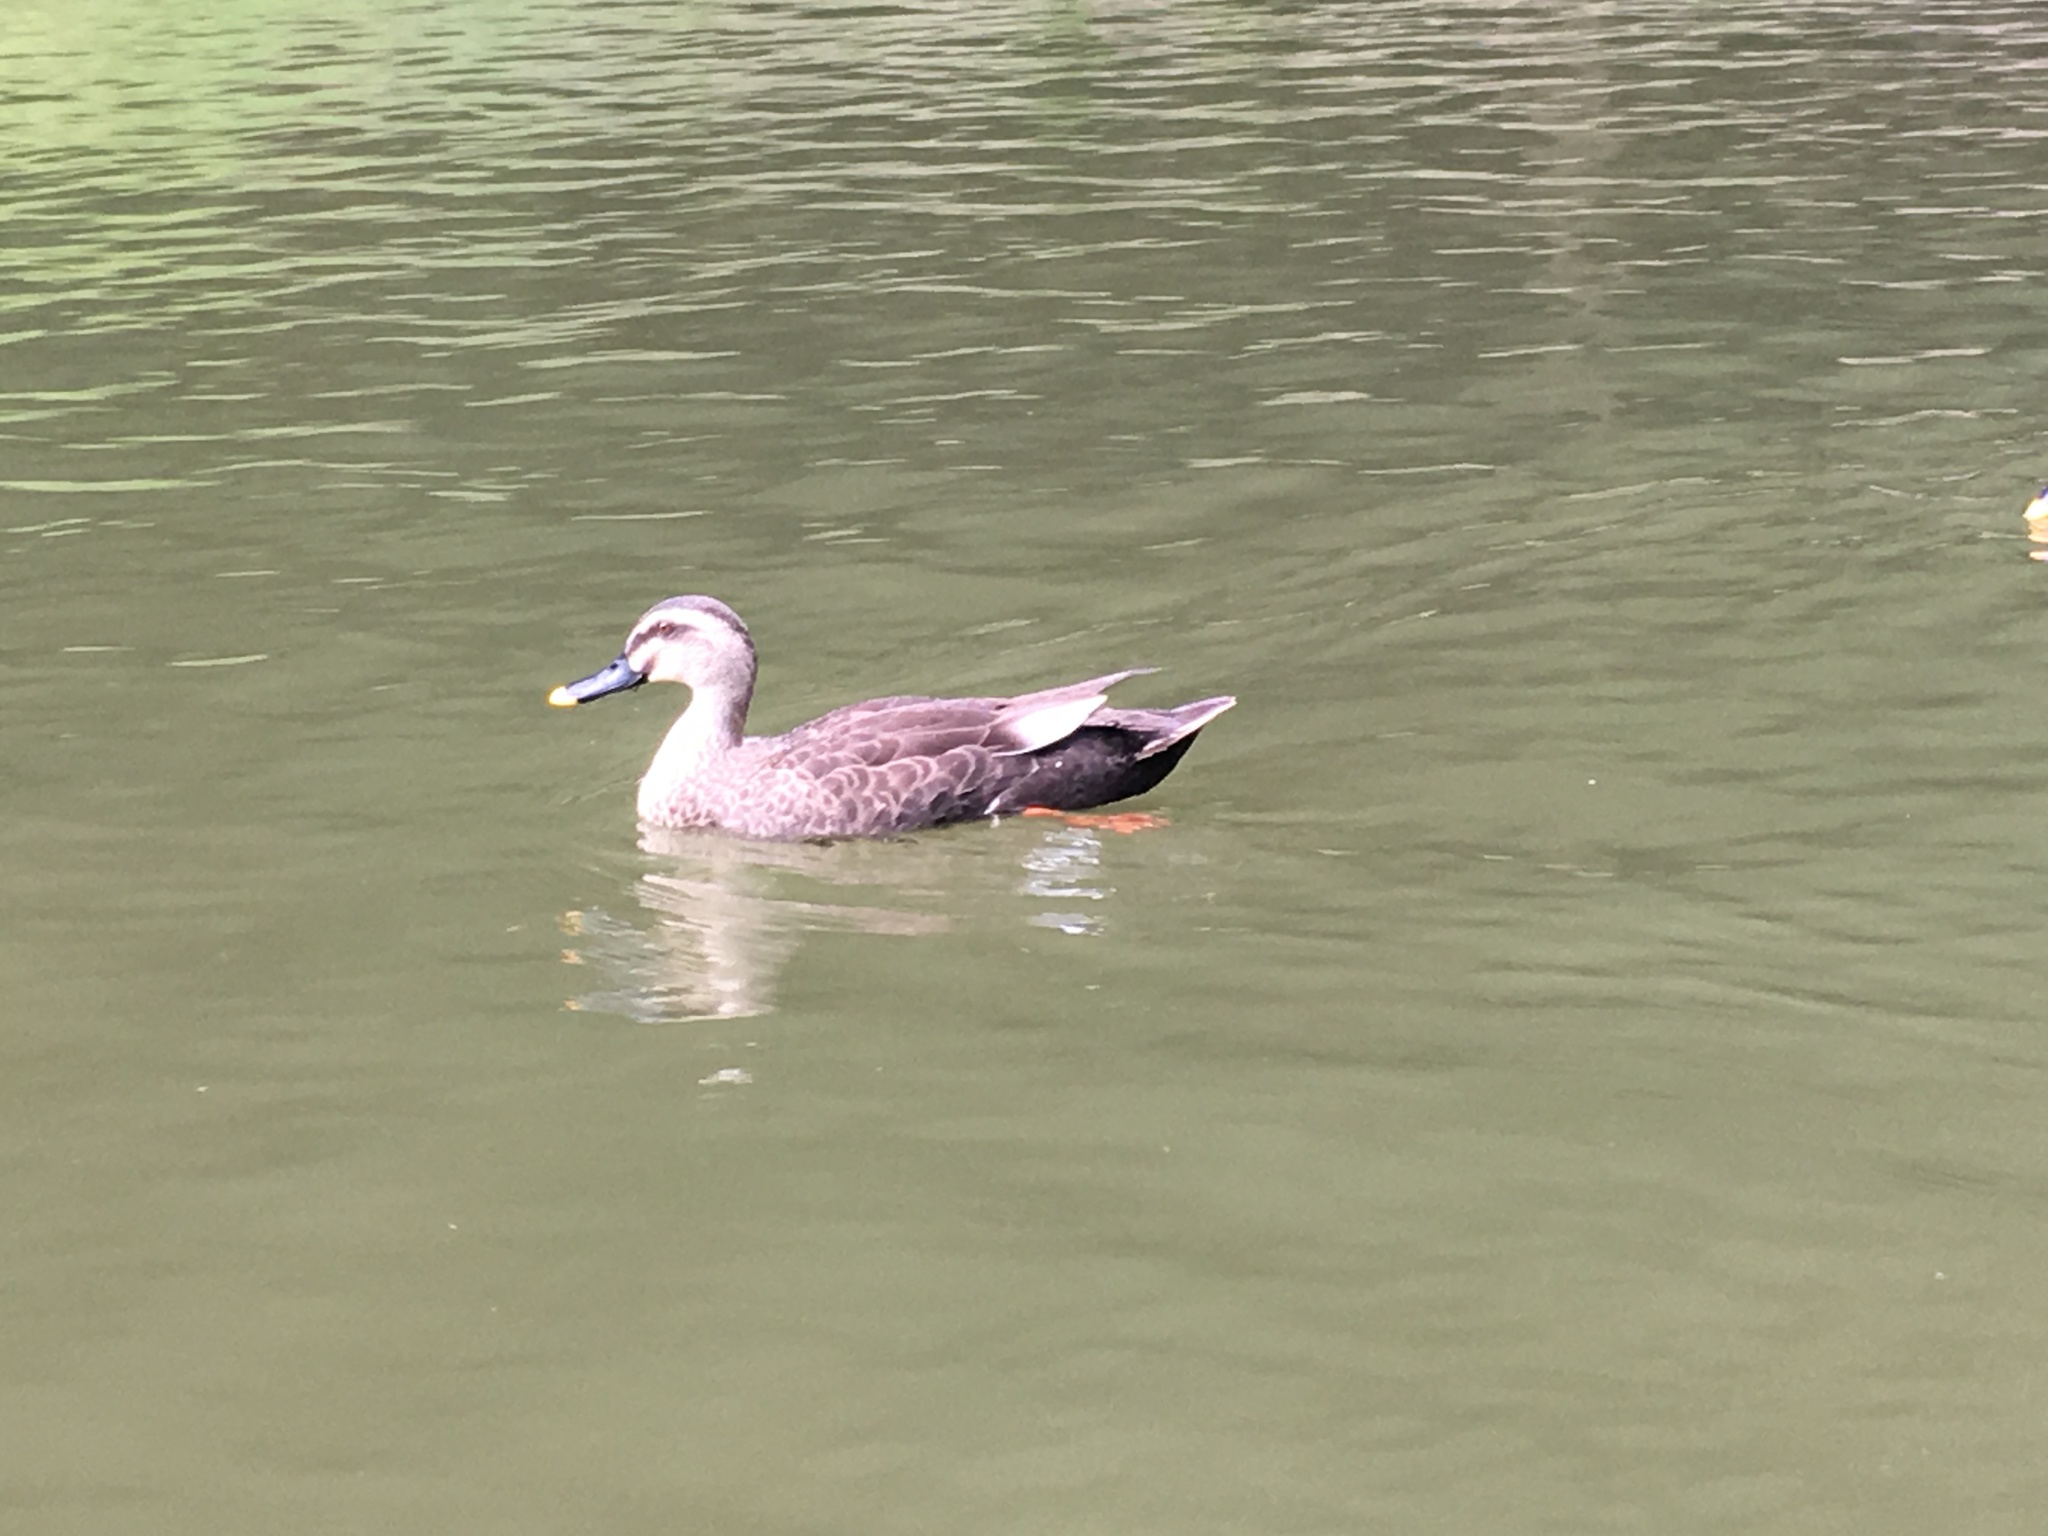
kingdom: Animalia
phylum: Chordata
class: Aves
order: Anseriformes
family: Anatidae
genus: Anas
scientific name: Anas zonorhyncha
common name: Eastern spot-billed duck
